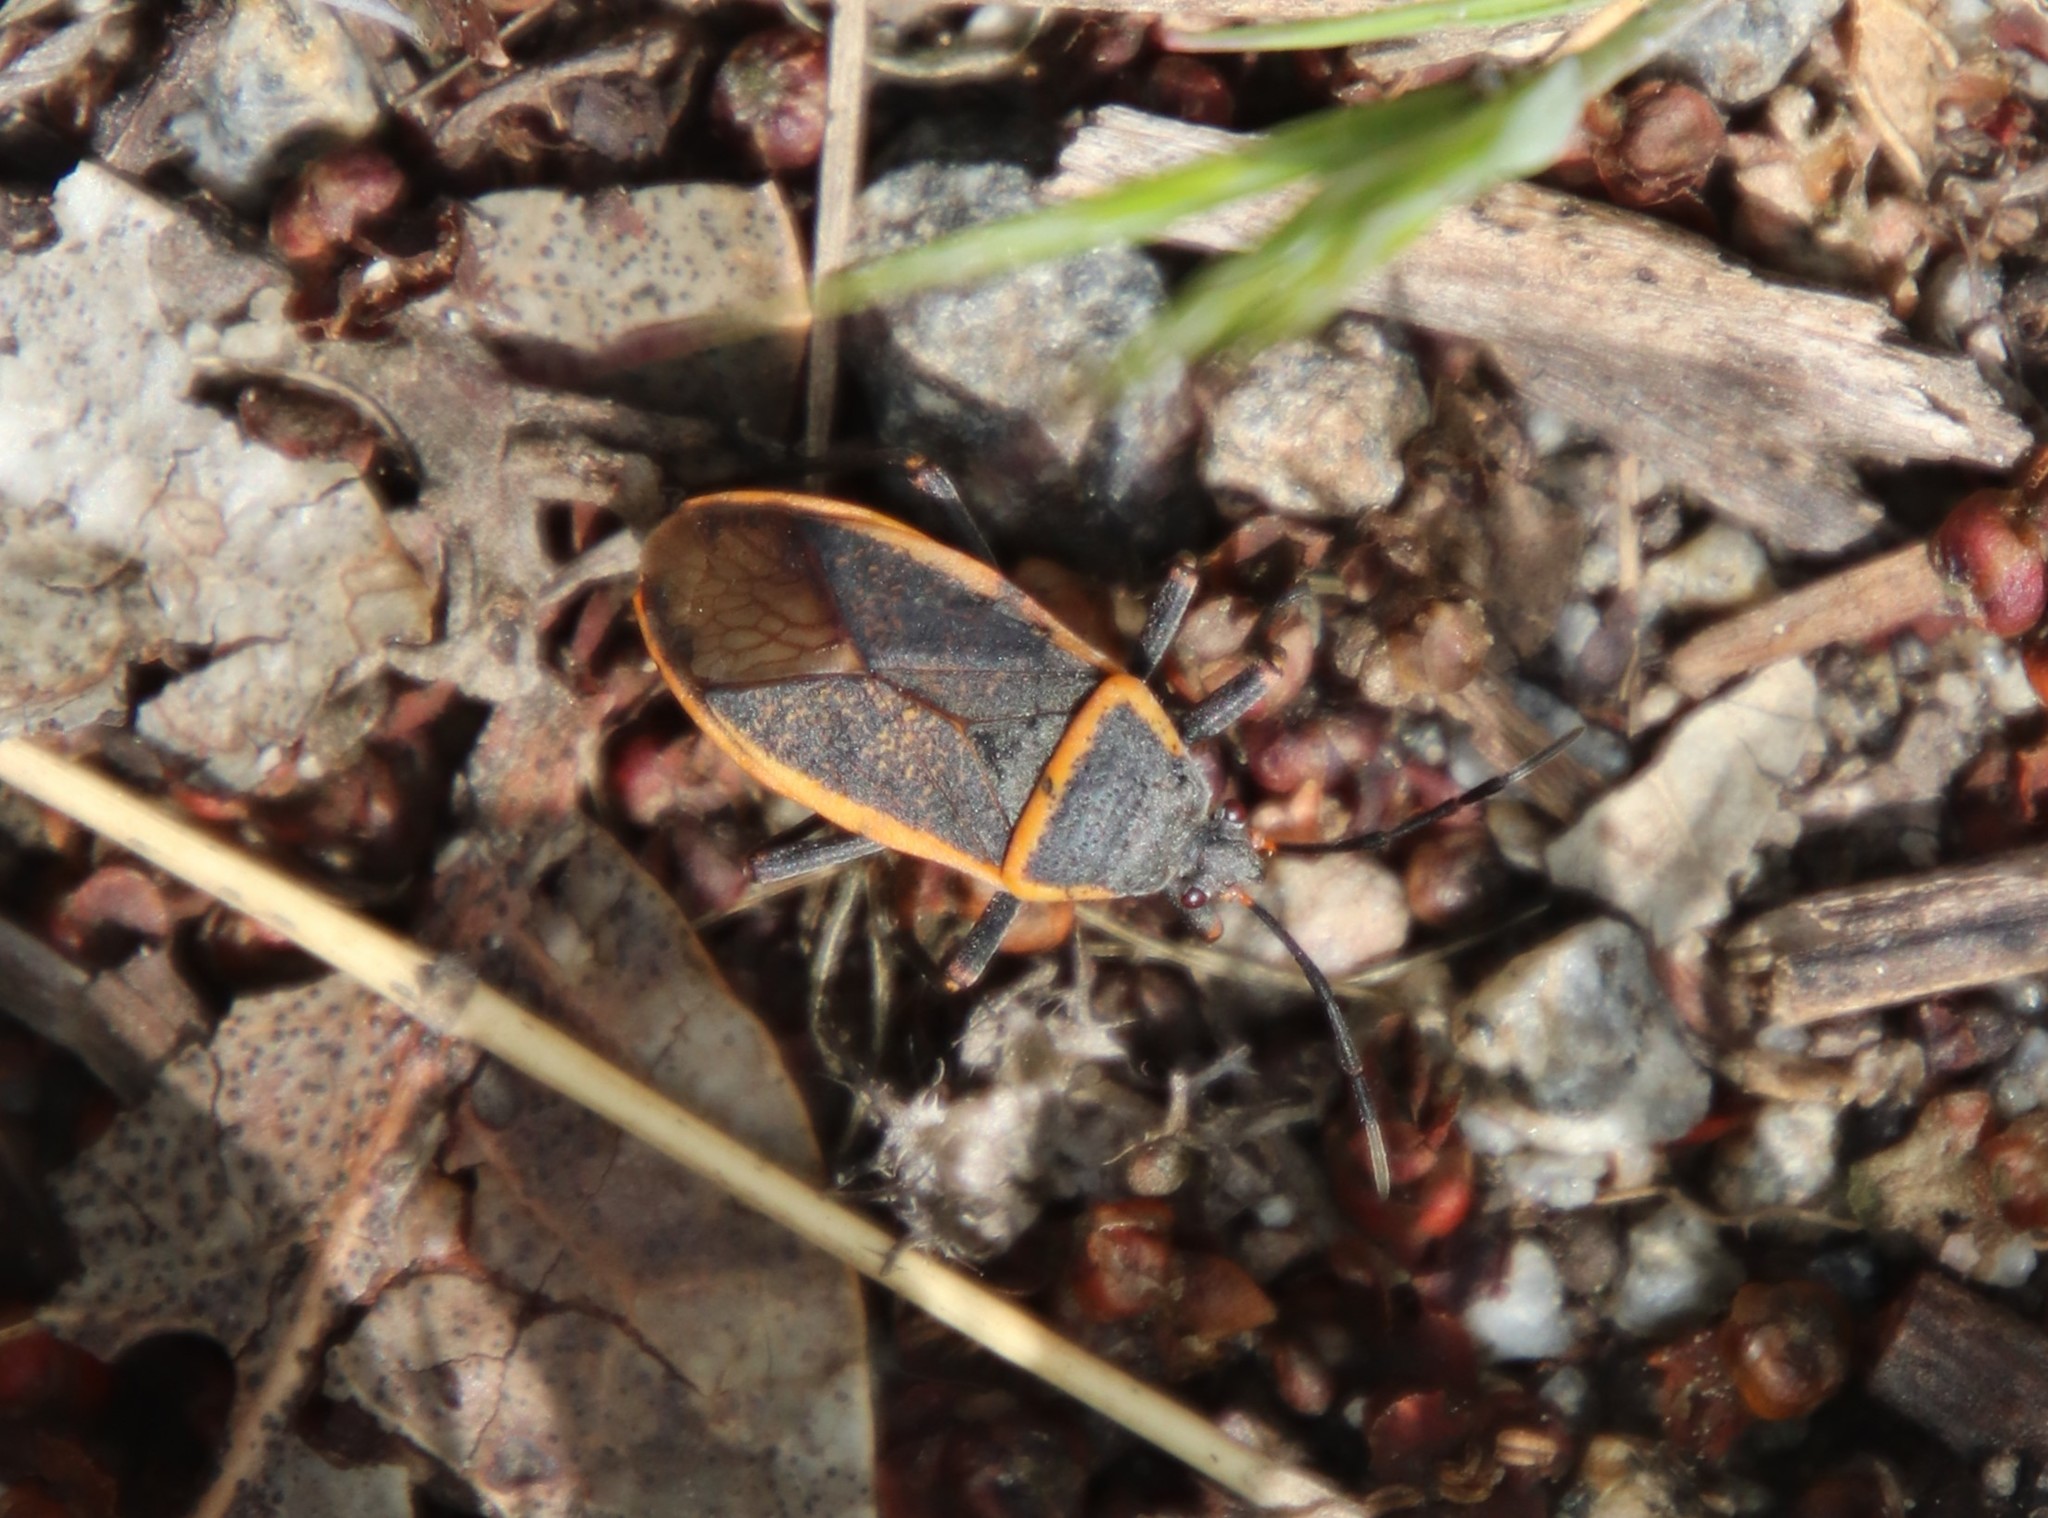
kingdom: Animalia
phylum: Arthropoda
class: Insecta
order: Hemiptera
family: Largidae
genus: Largus
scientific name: Largus californicus
